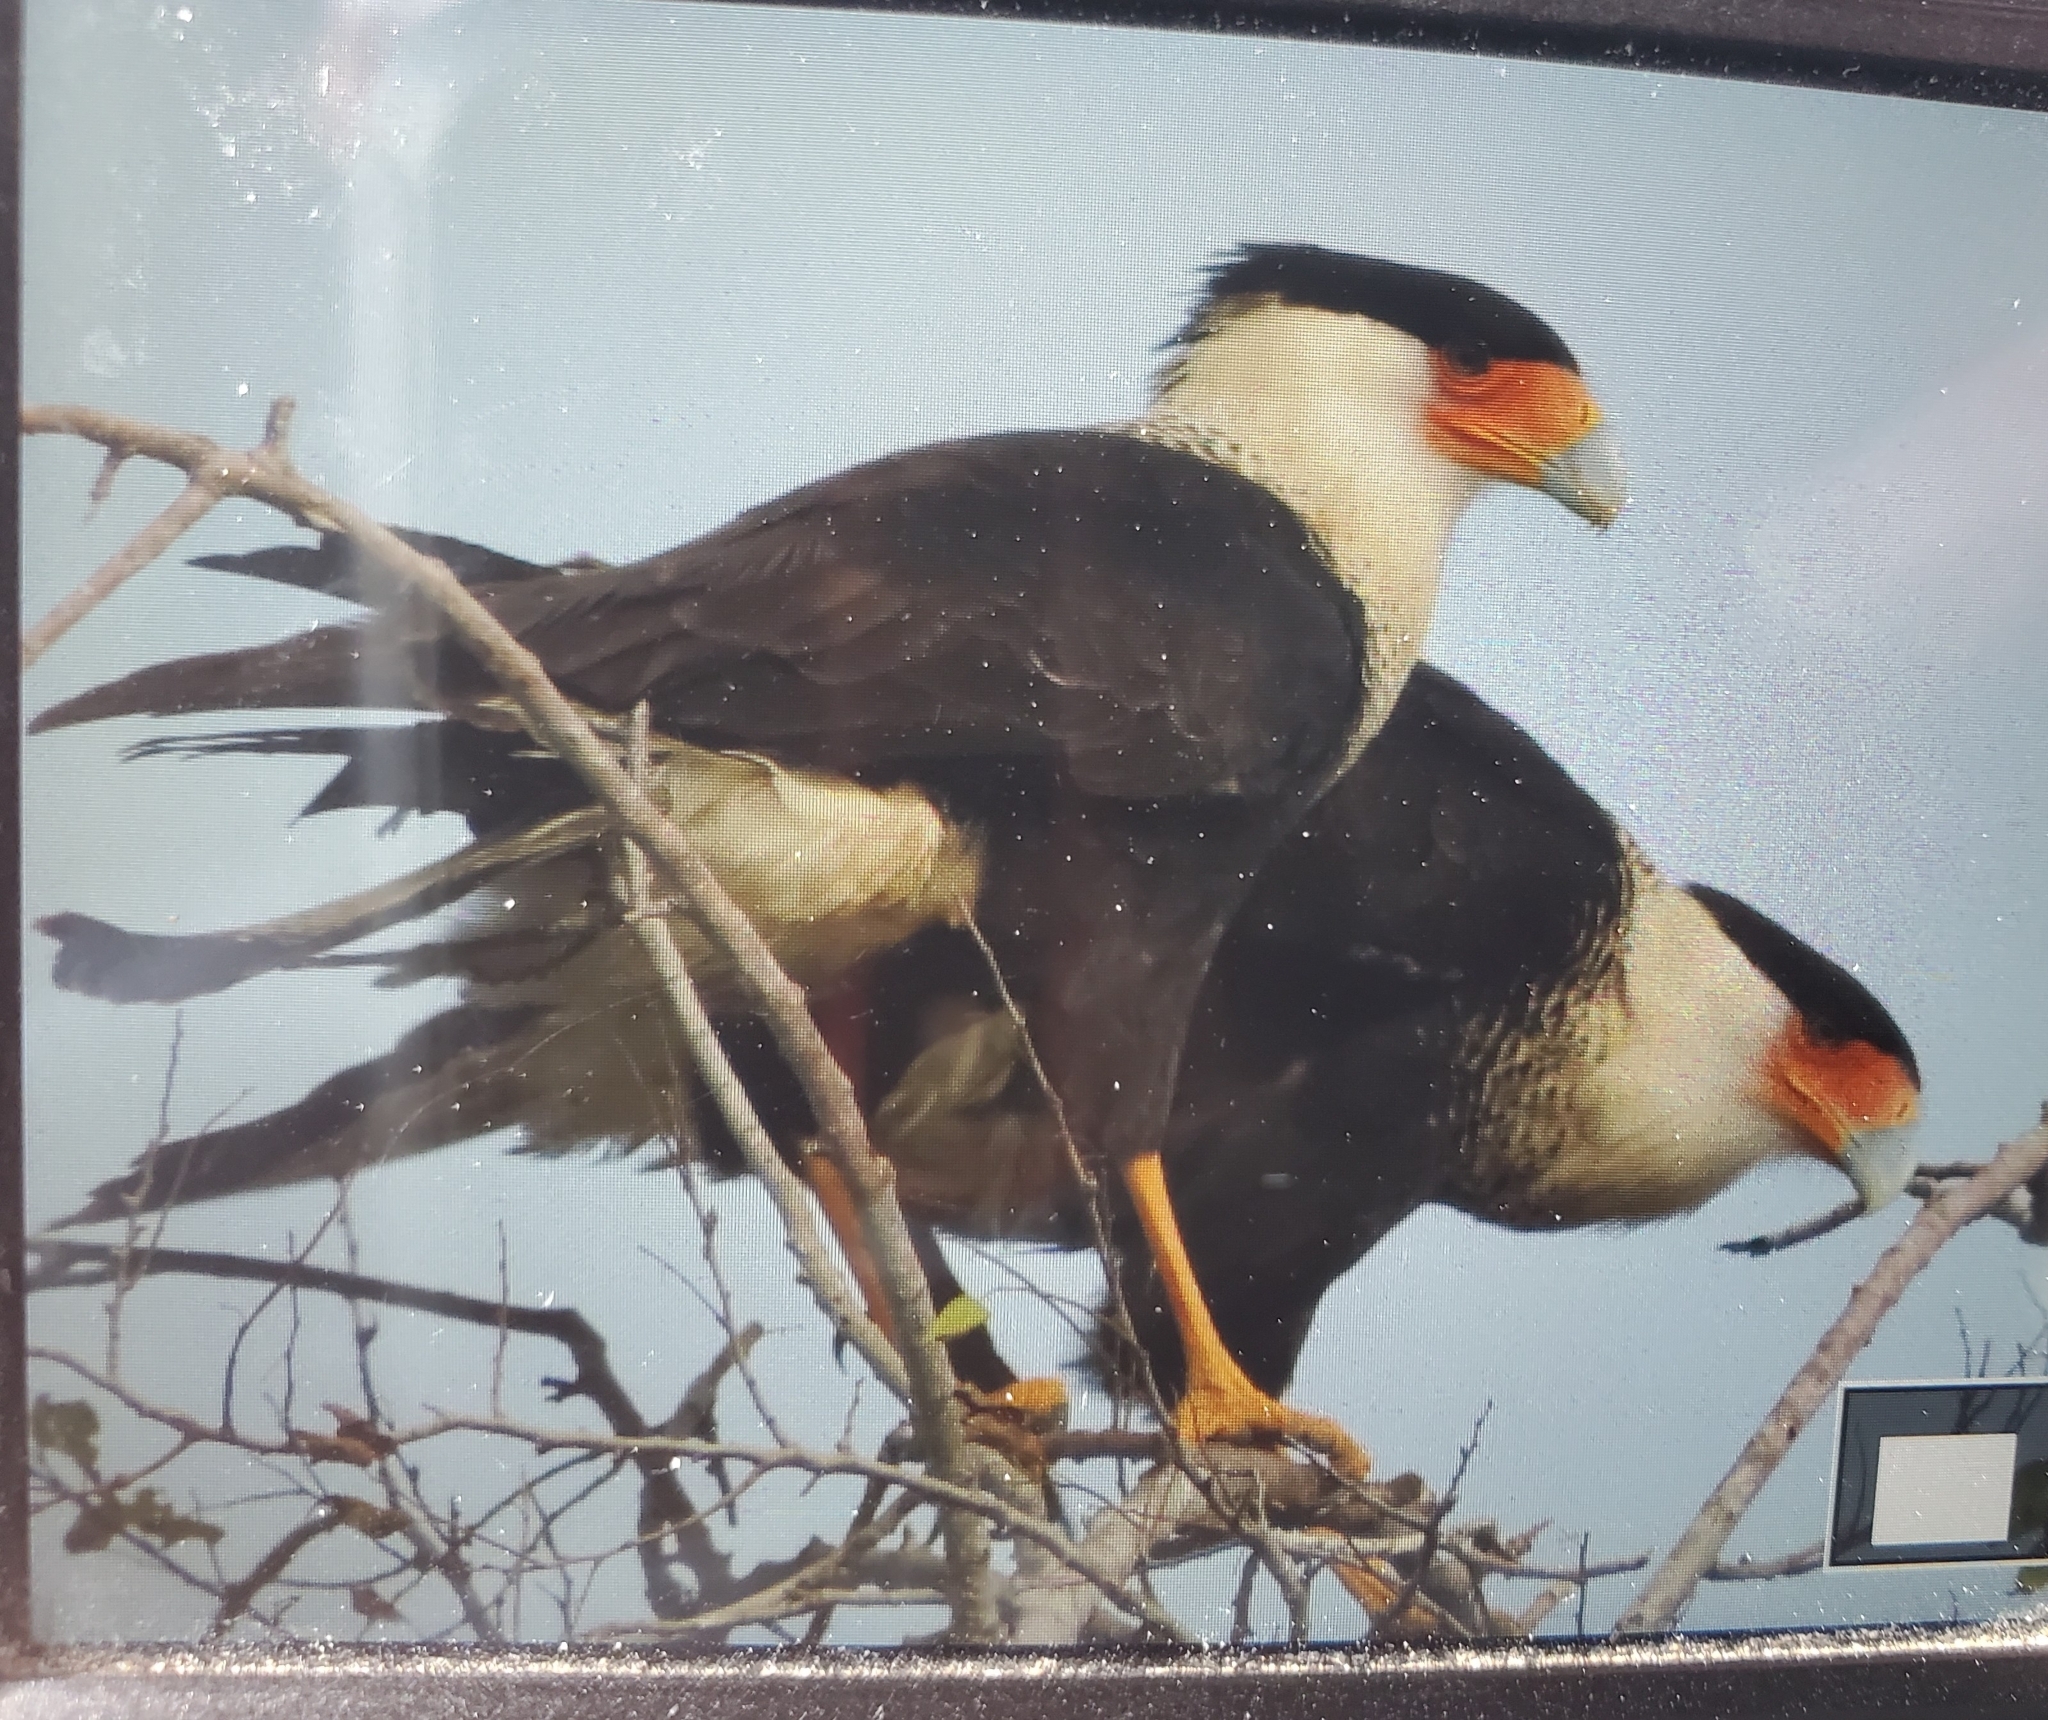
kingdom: Animalia
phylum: Chordata
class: Aves
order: Falconiformes
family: Falconidae
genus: Caracara
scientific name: Caracara plancus
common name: Southern caracara
